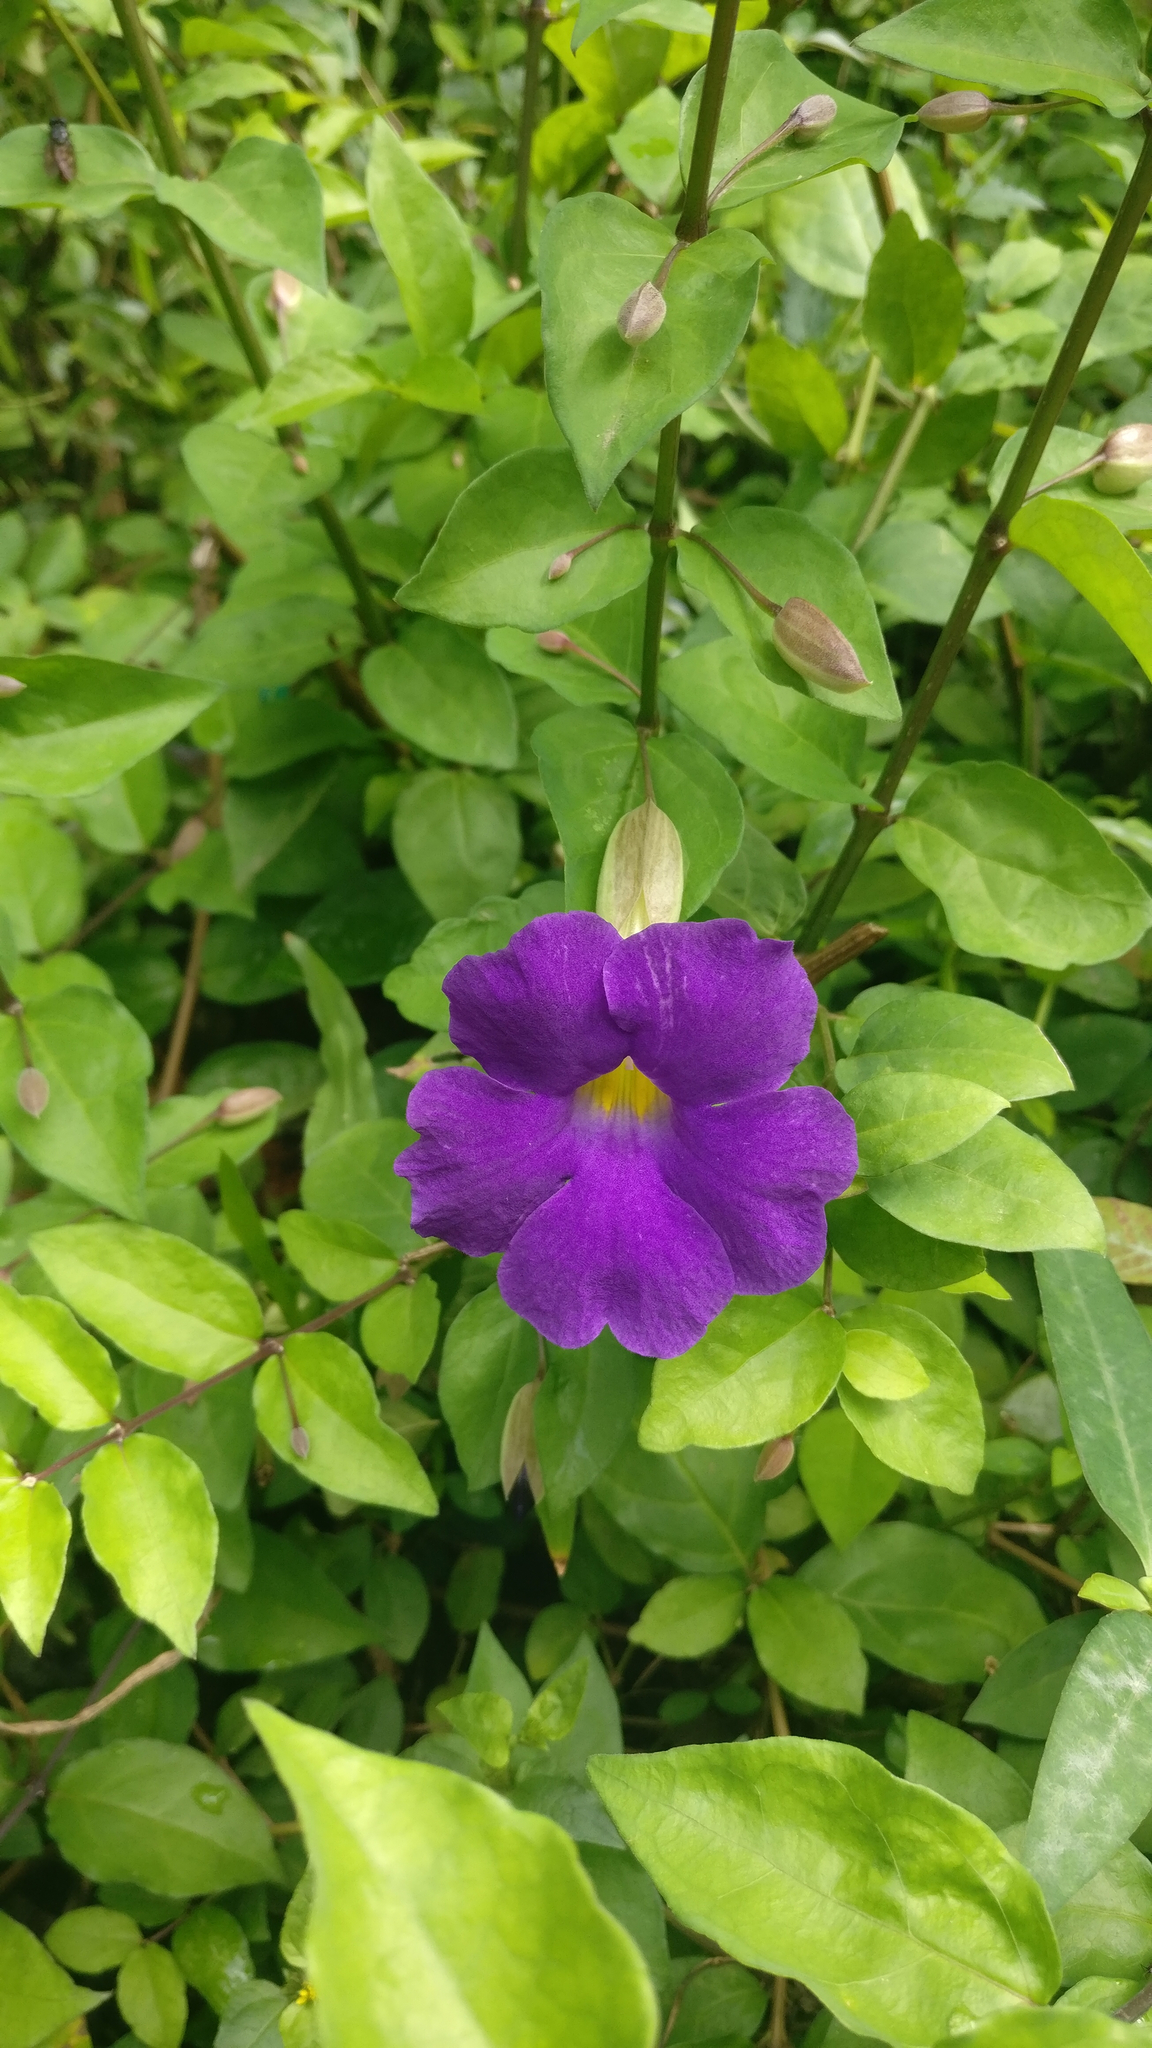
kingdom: Plantae
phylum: Tracheophyta
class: Magnoliopsida
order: Lamiales
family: Acanthaceae
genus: Thunbergia
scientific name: Thunbergia erecta
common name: Bush clockvine
